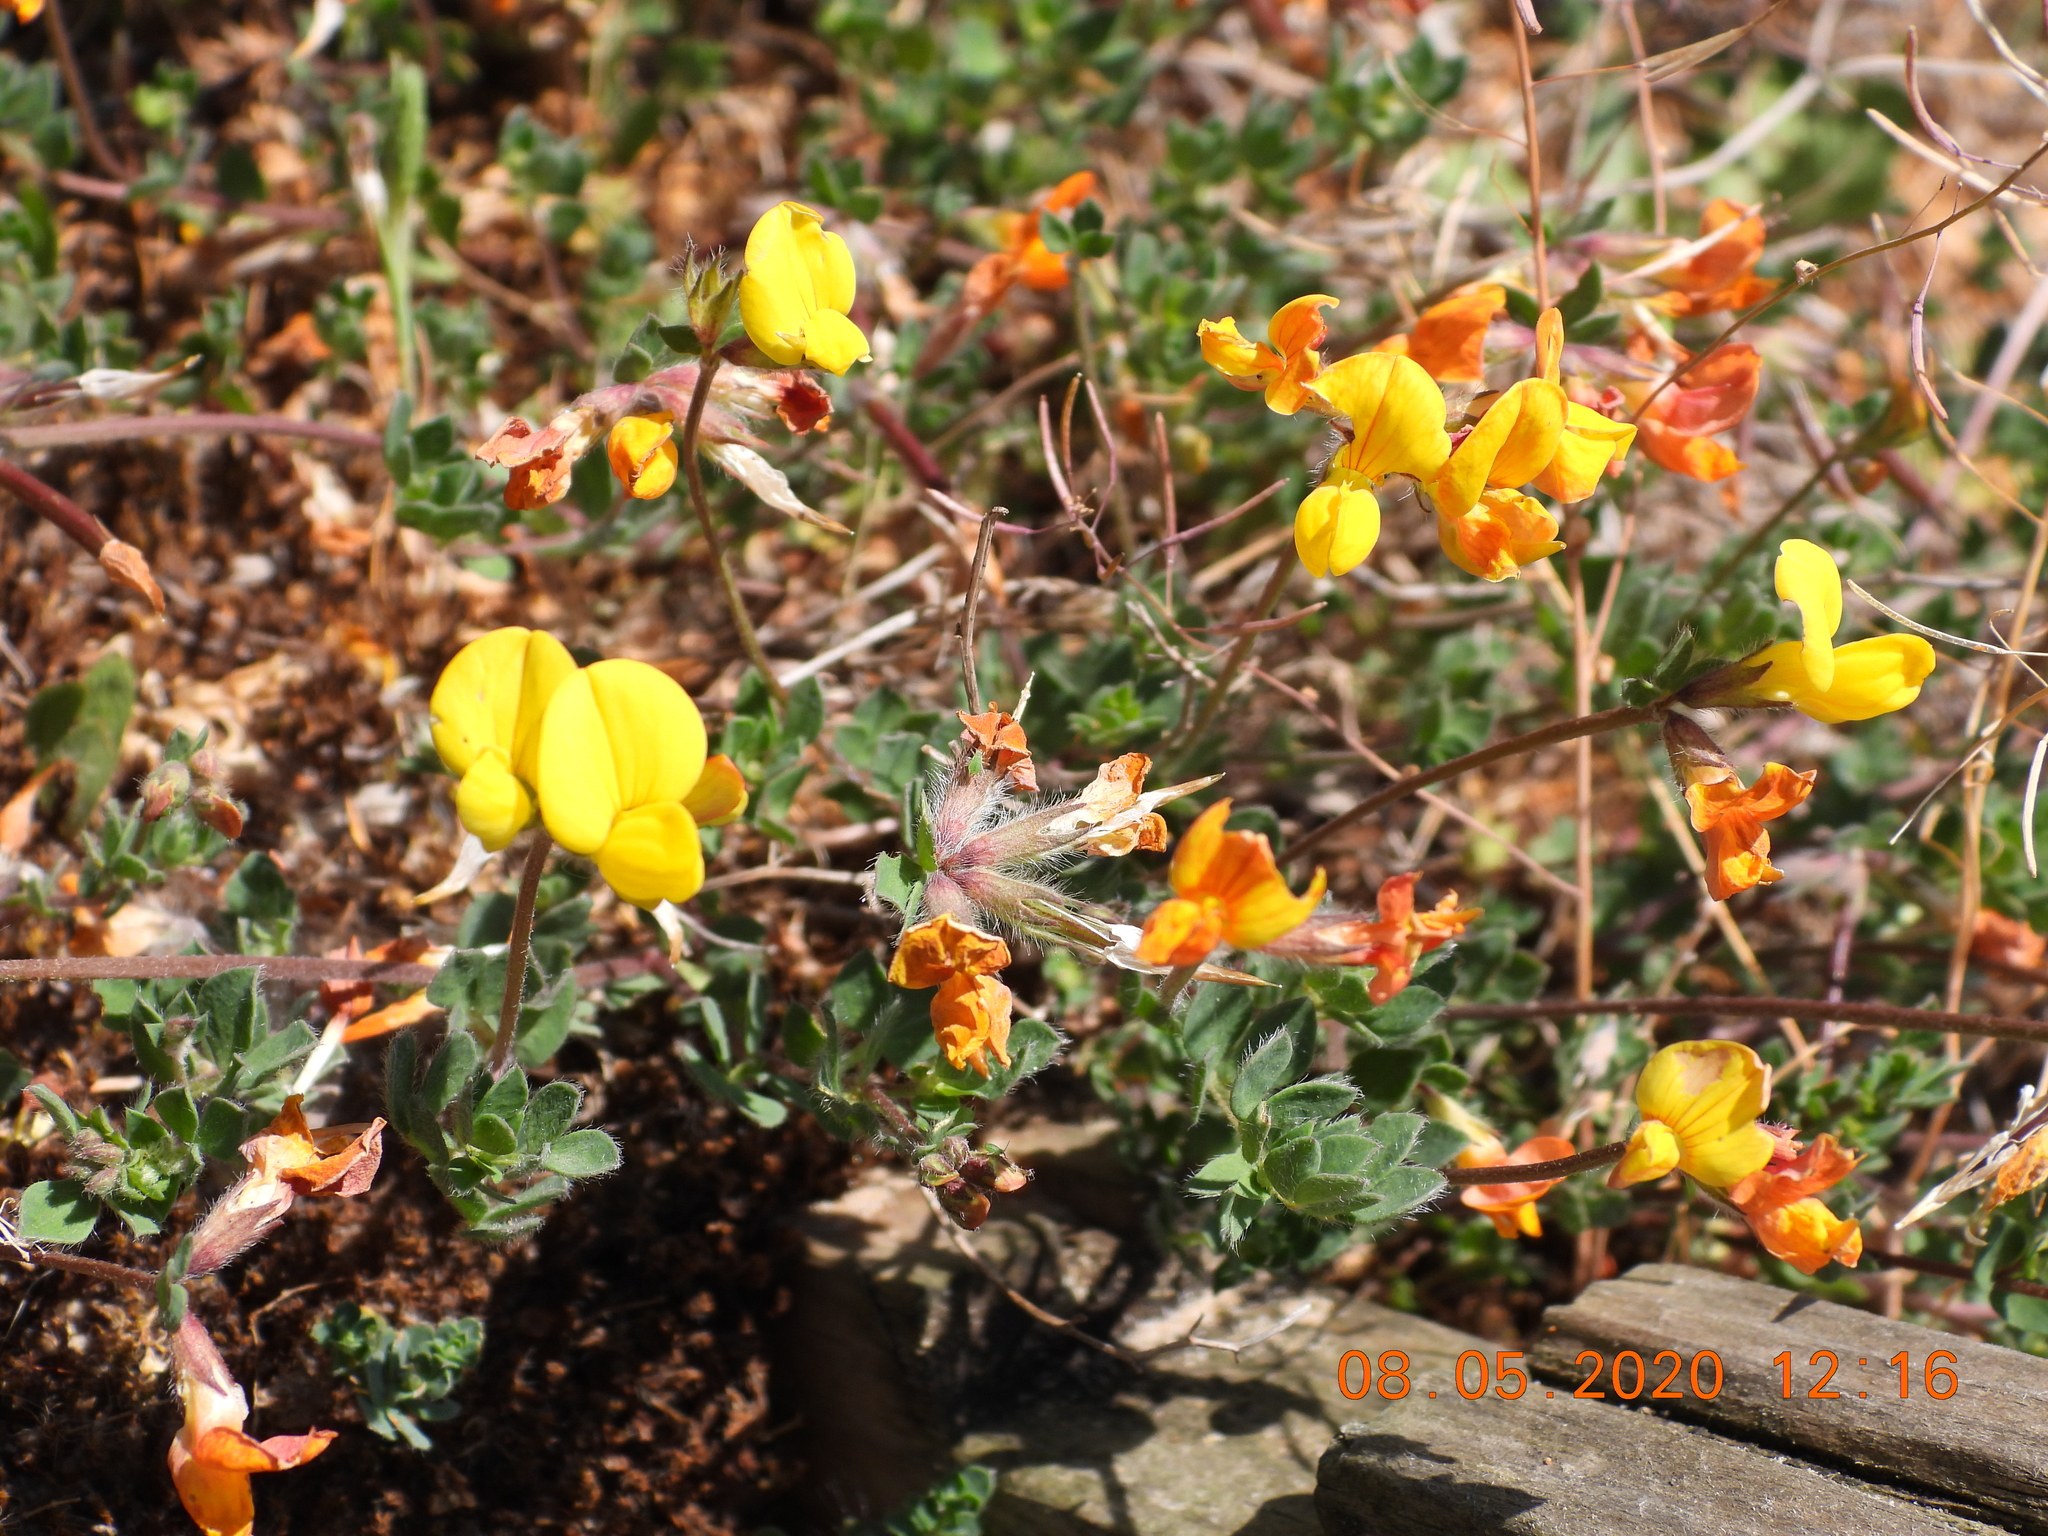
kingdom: Plantae
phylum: Tracheophyta
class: Magnoliopsida
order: Fabales
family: Fabaceae
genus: Lotus
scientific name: Lotus corniculatus
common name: Common bird's-foot-trefoil
